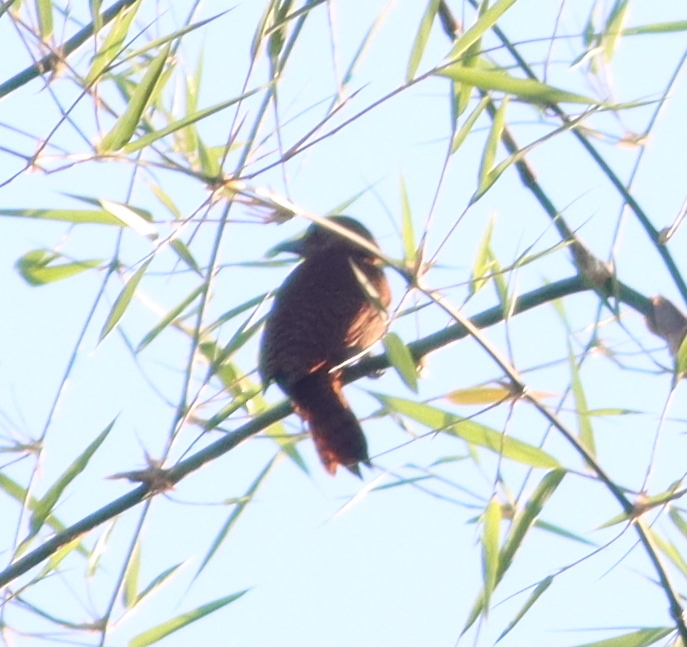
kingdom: Animalia
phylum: Chordata
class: Aves
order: Piciformes
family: Picidae
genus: Micropternus
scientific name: Micropternus brachyurus
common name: Rufous woodpecker
